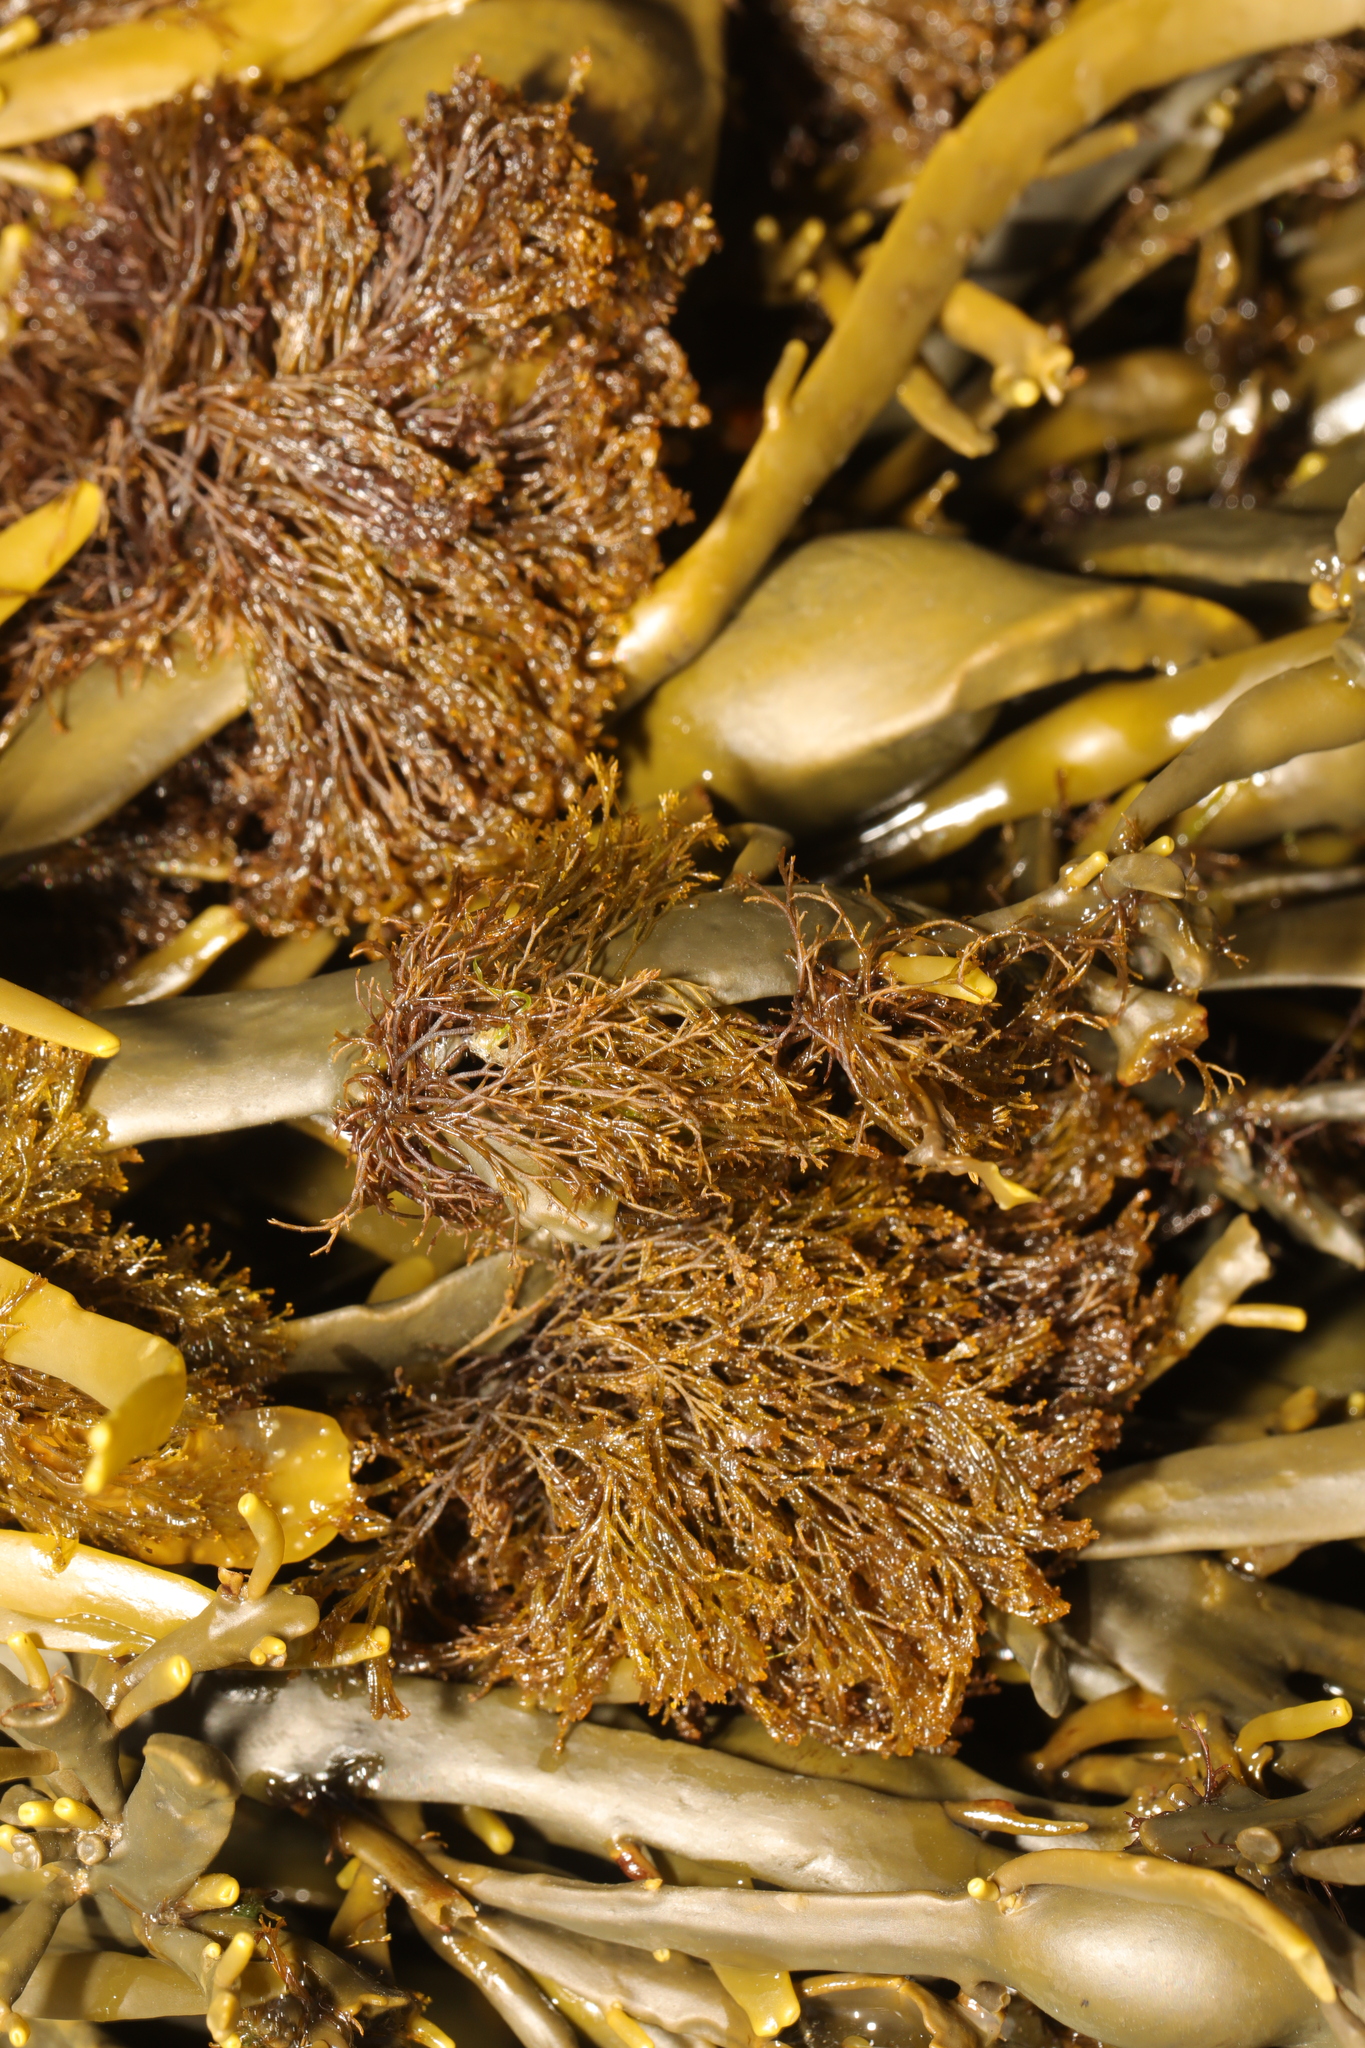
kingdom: Plantae
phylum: Rhodophyta
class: Florideophyceae
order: Ceramiales
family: Rhodomelaceae
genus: Vertebrata
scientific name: Vertebrata lanosa
